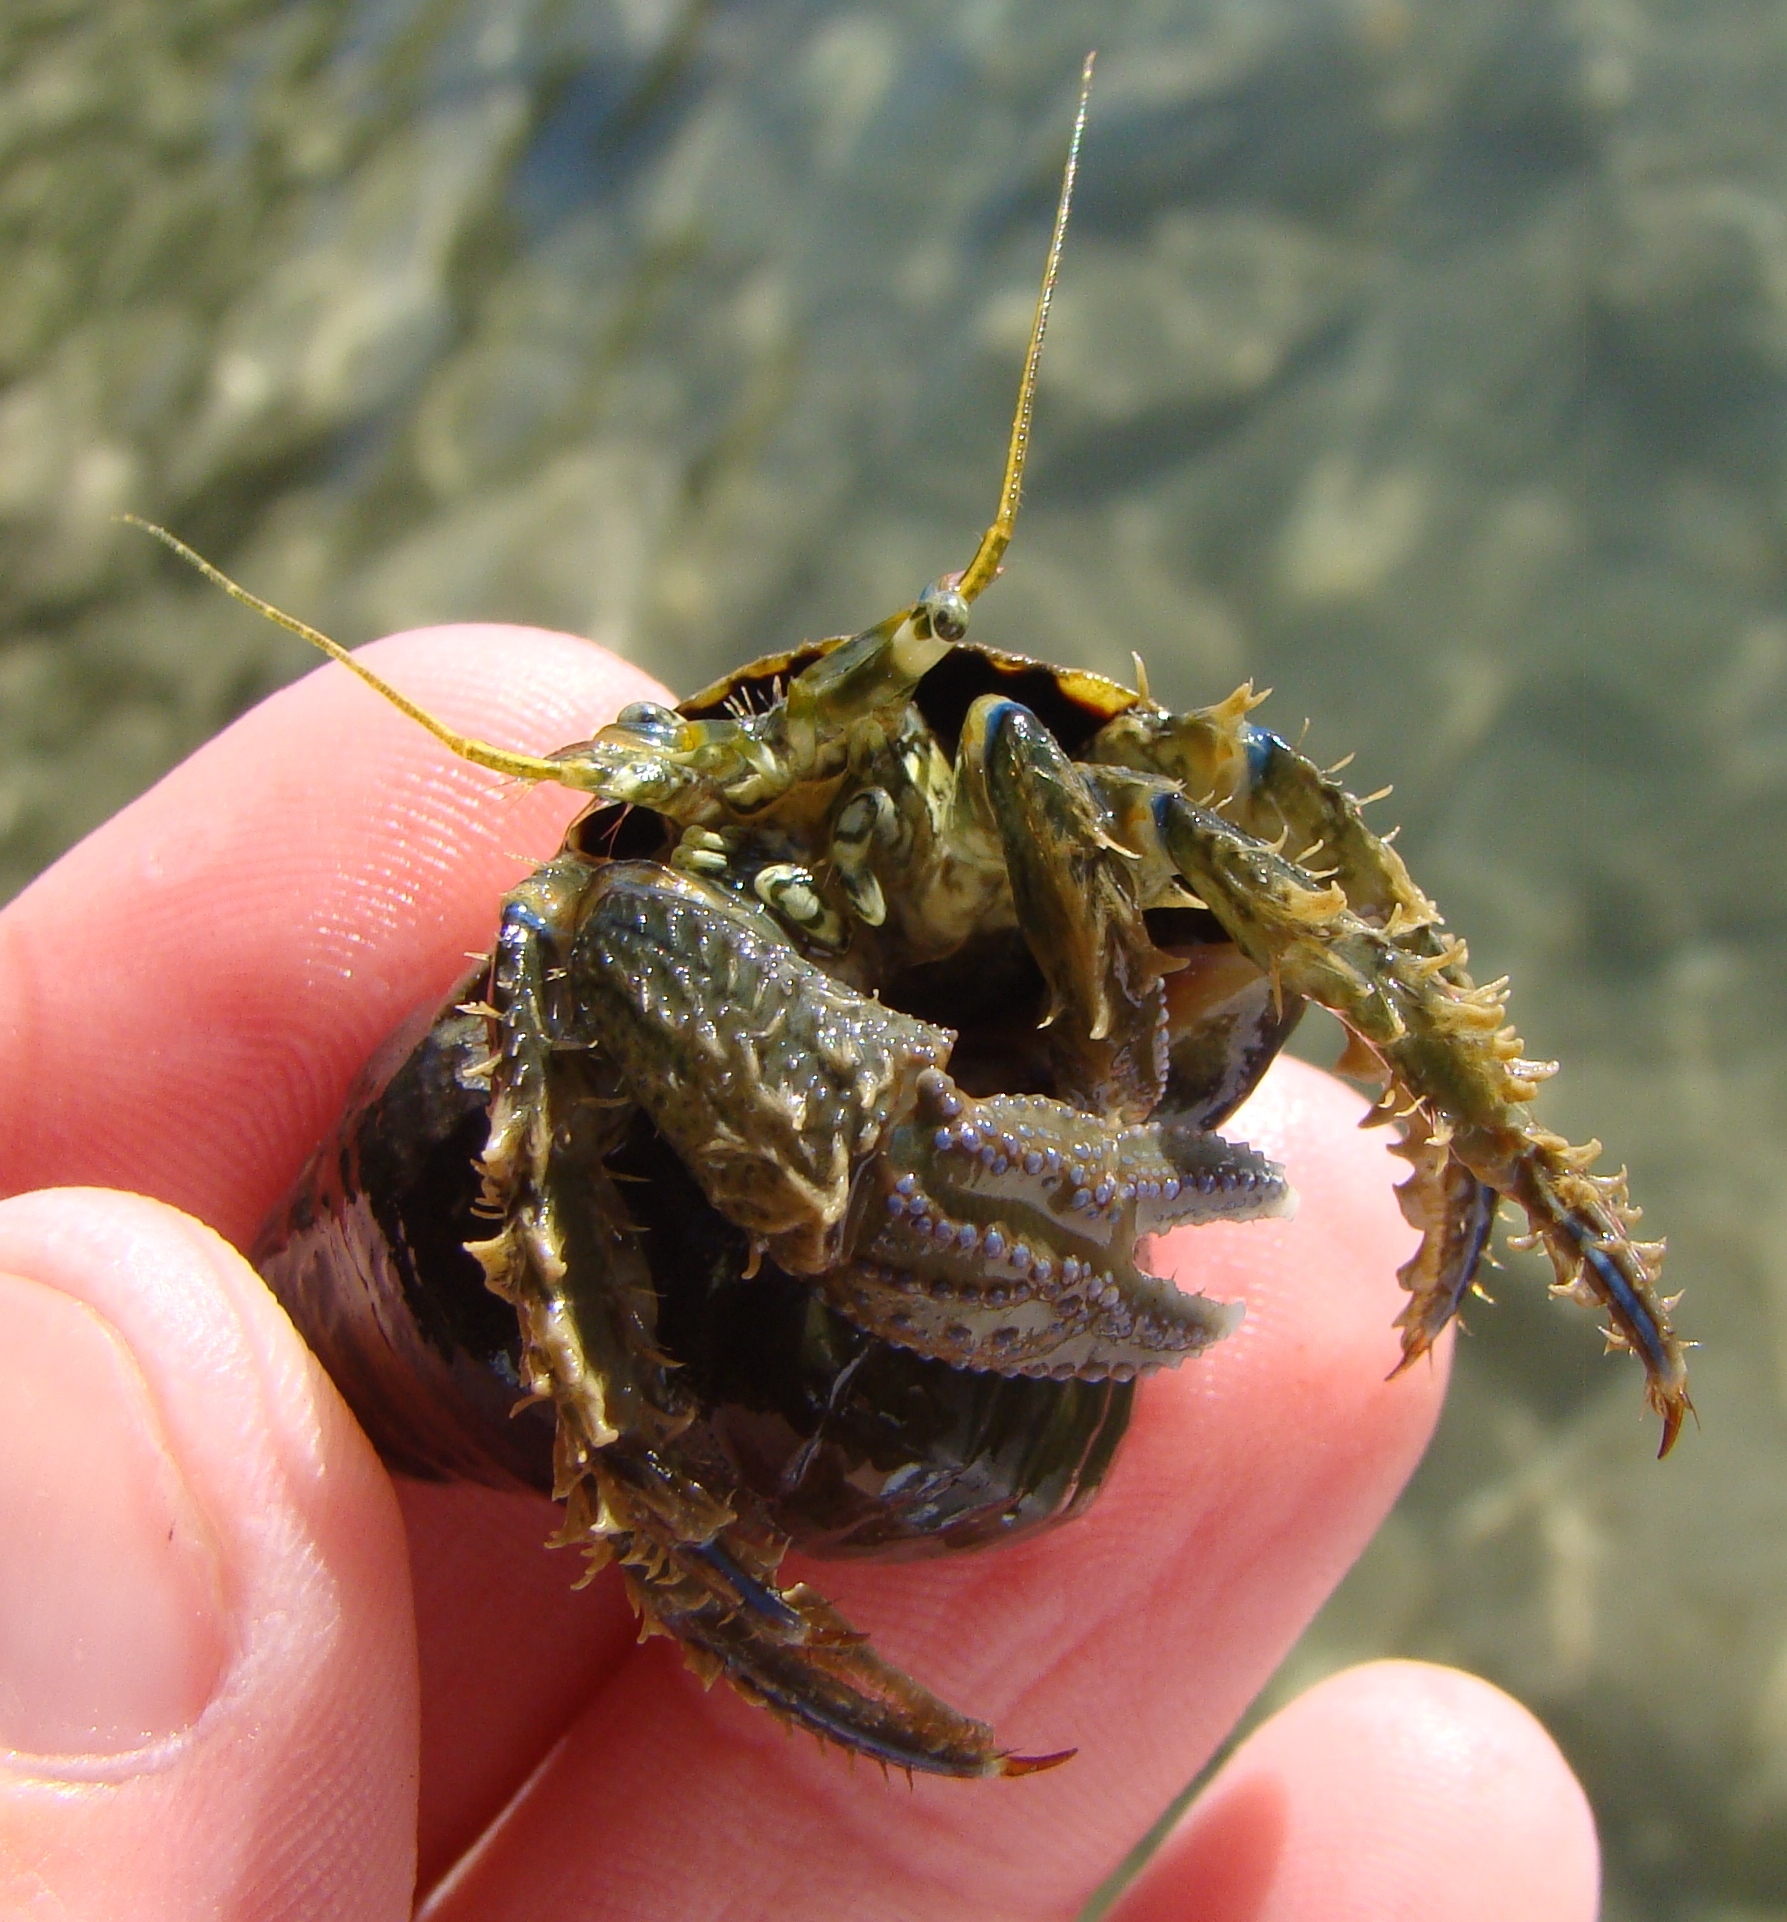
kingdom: Animalia
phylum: Arthropoda
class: Malacostraca
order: Decapoda
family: Paguridae
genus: Pagurus
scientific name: Pagurus novizealandiae
